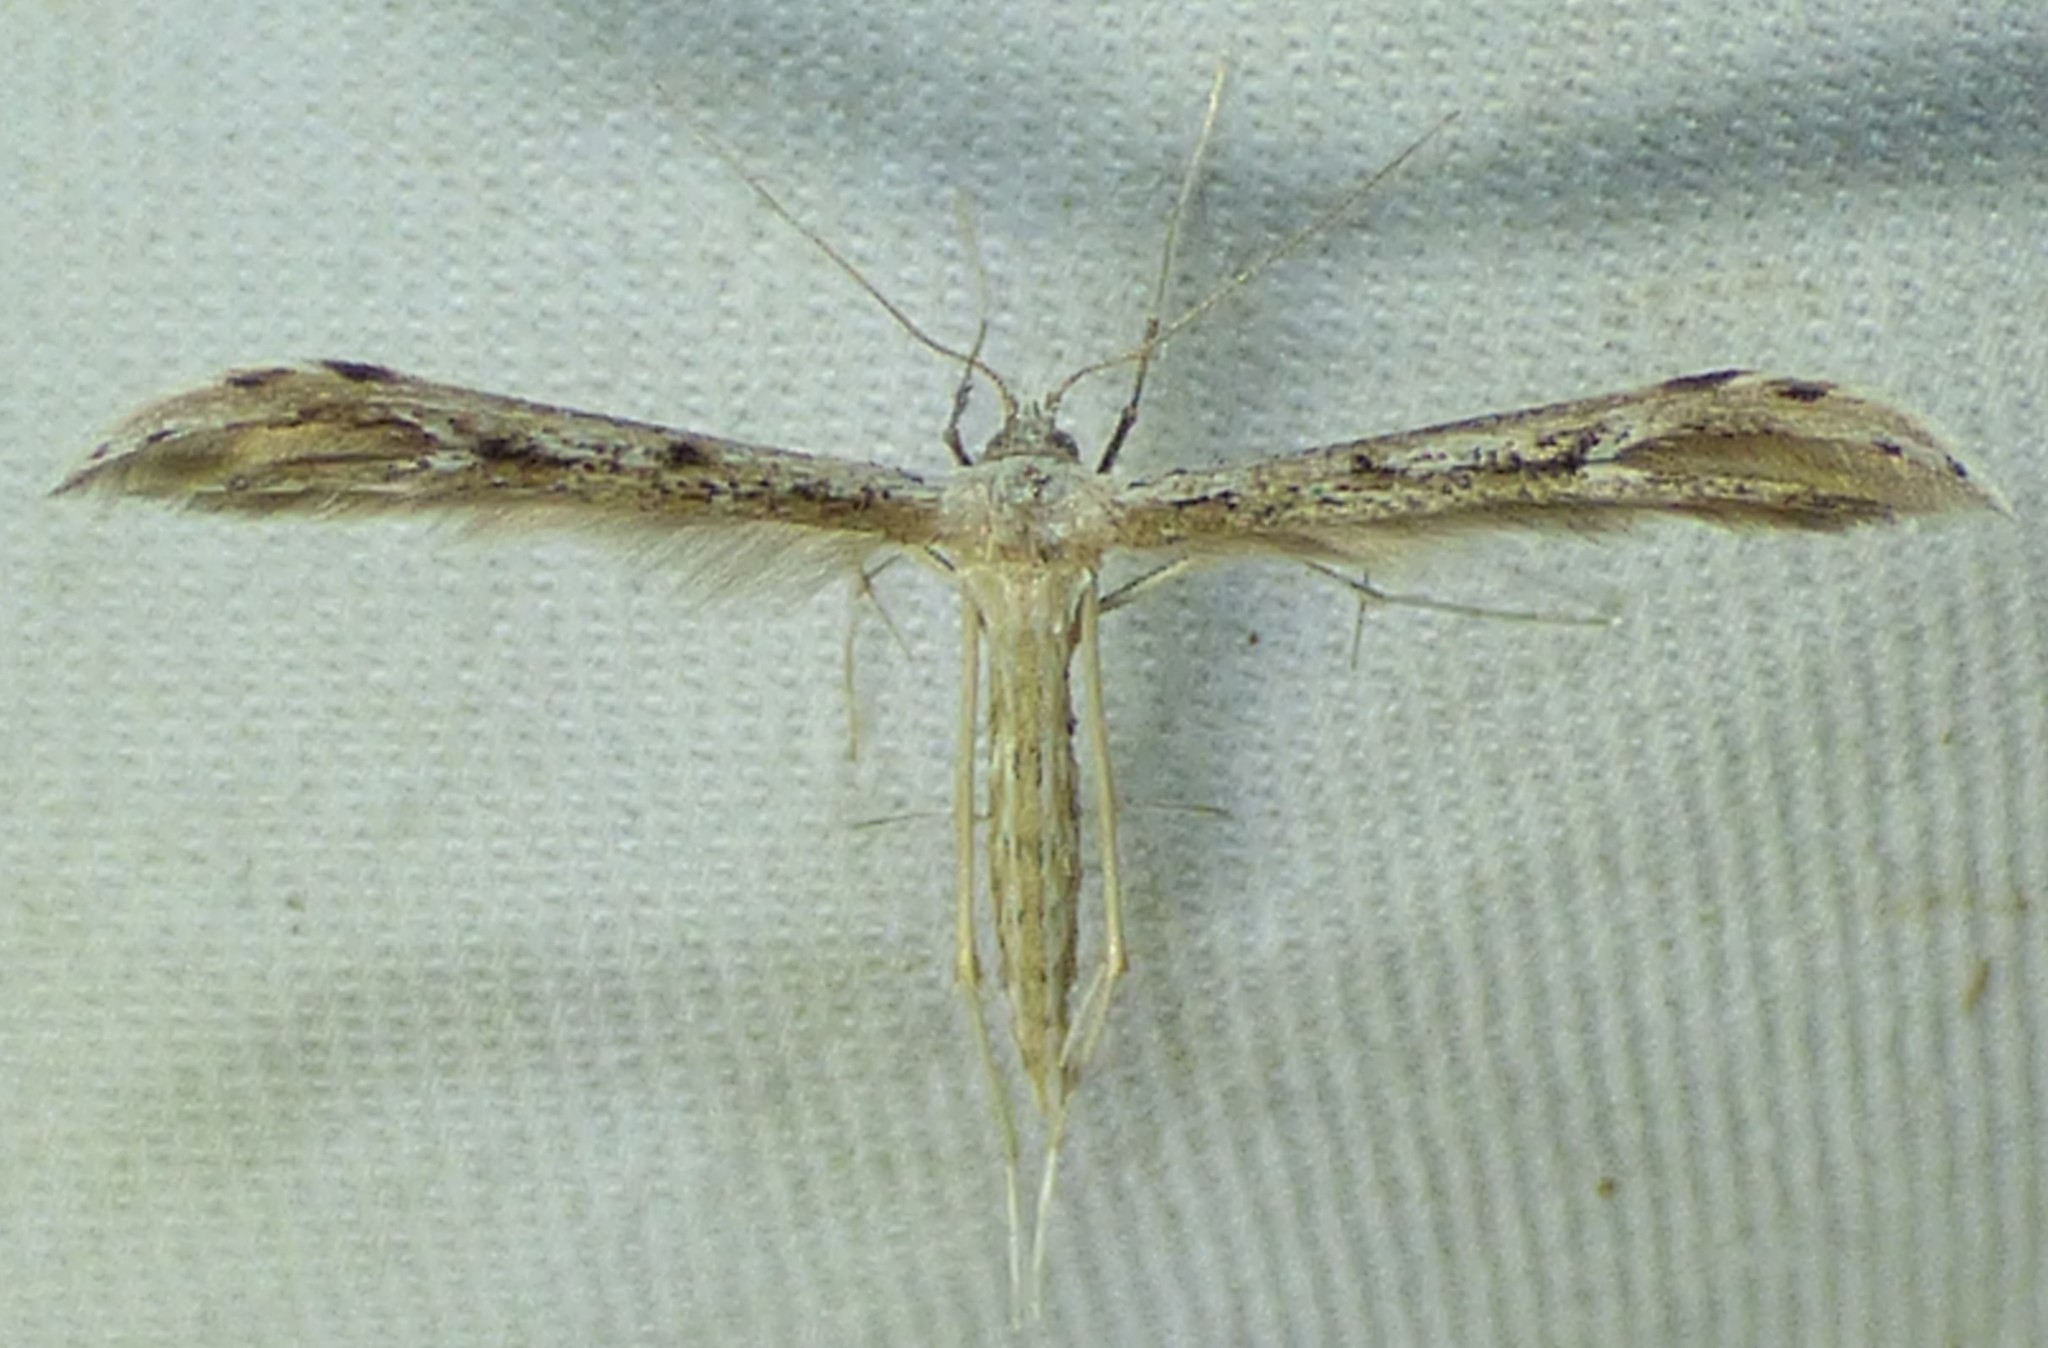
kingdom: Animalia
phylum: Arthropoda
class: Insecta
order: Lepidoptera
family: Pterophoridae
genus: Pselnophorus
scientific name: Pselnophorus belfragei
